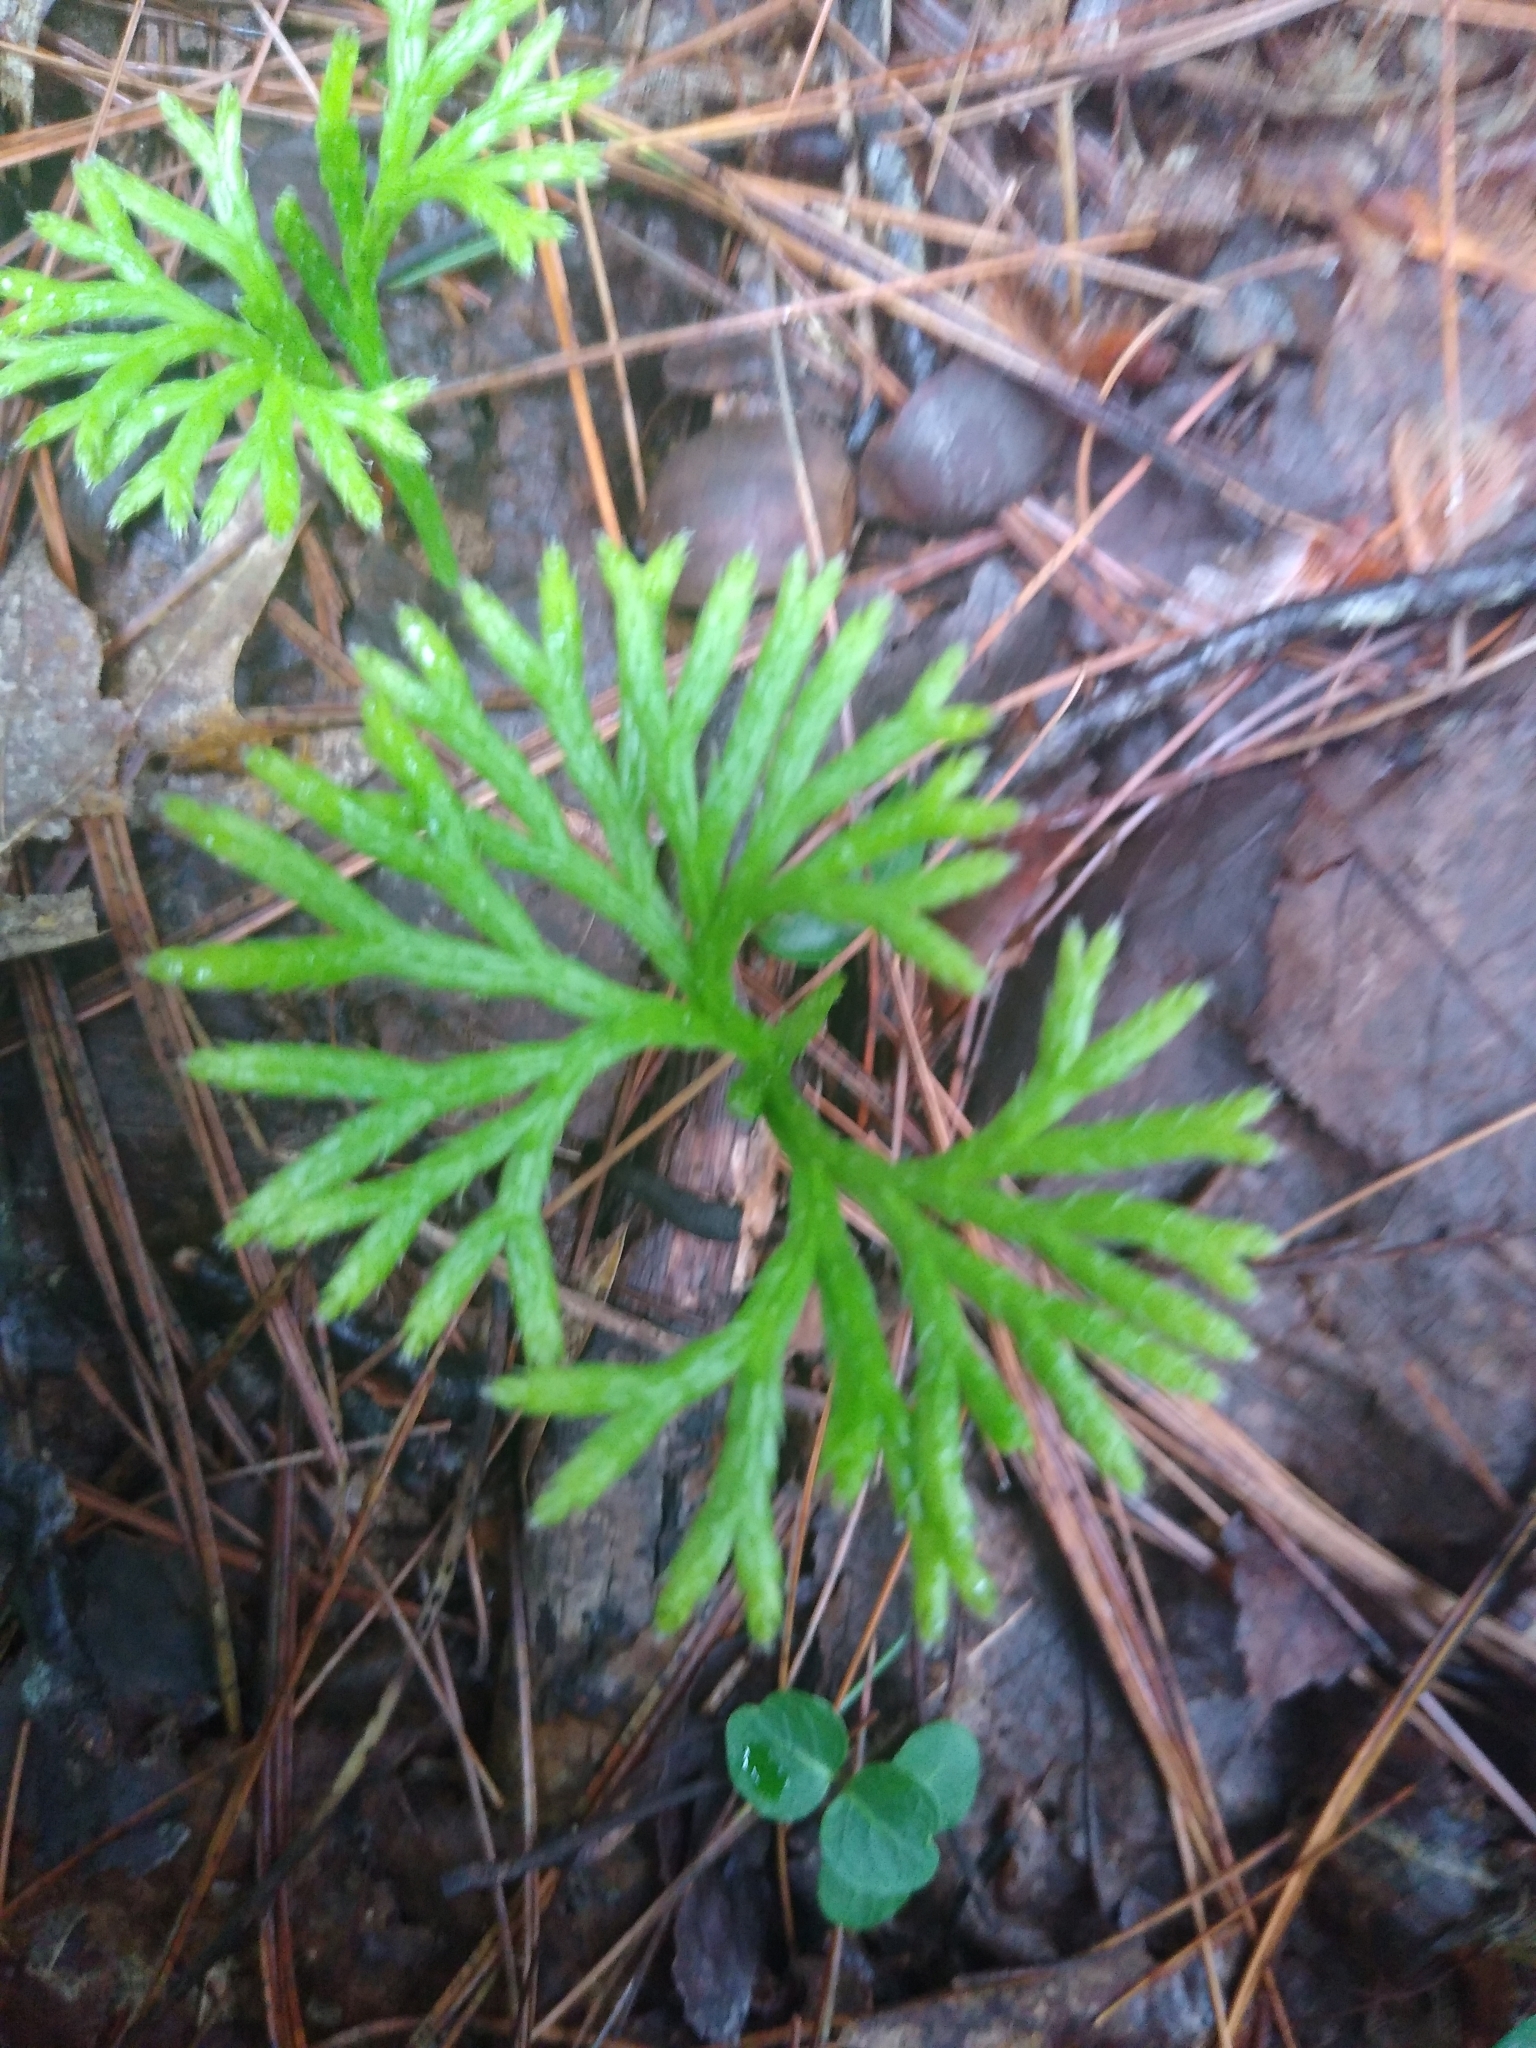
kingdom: Plantae
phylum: Tracheophyta
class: Lycopodiopsida
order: Lycopodiales
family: Lycopodiaceae
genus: Diphasiastrum
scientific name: Diphasiastrum digitatum
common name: Southern running-pine
